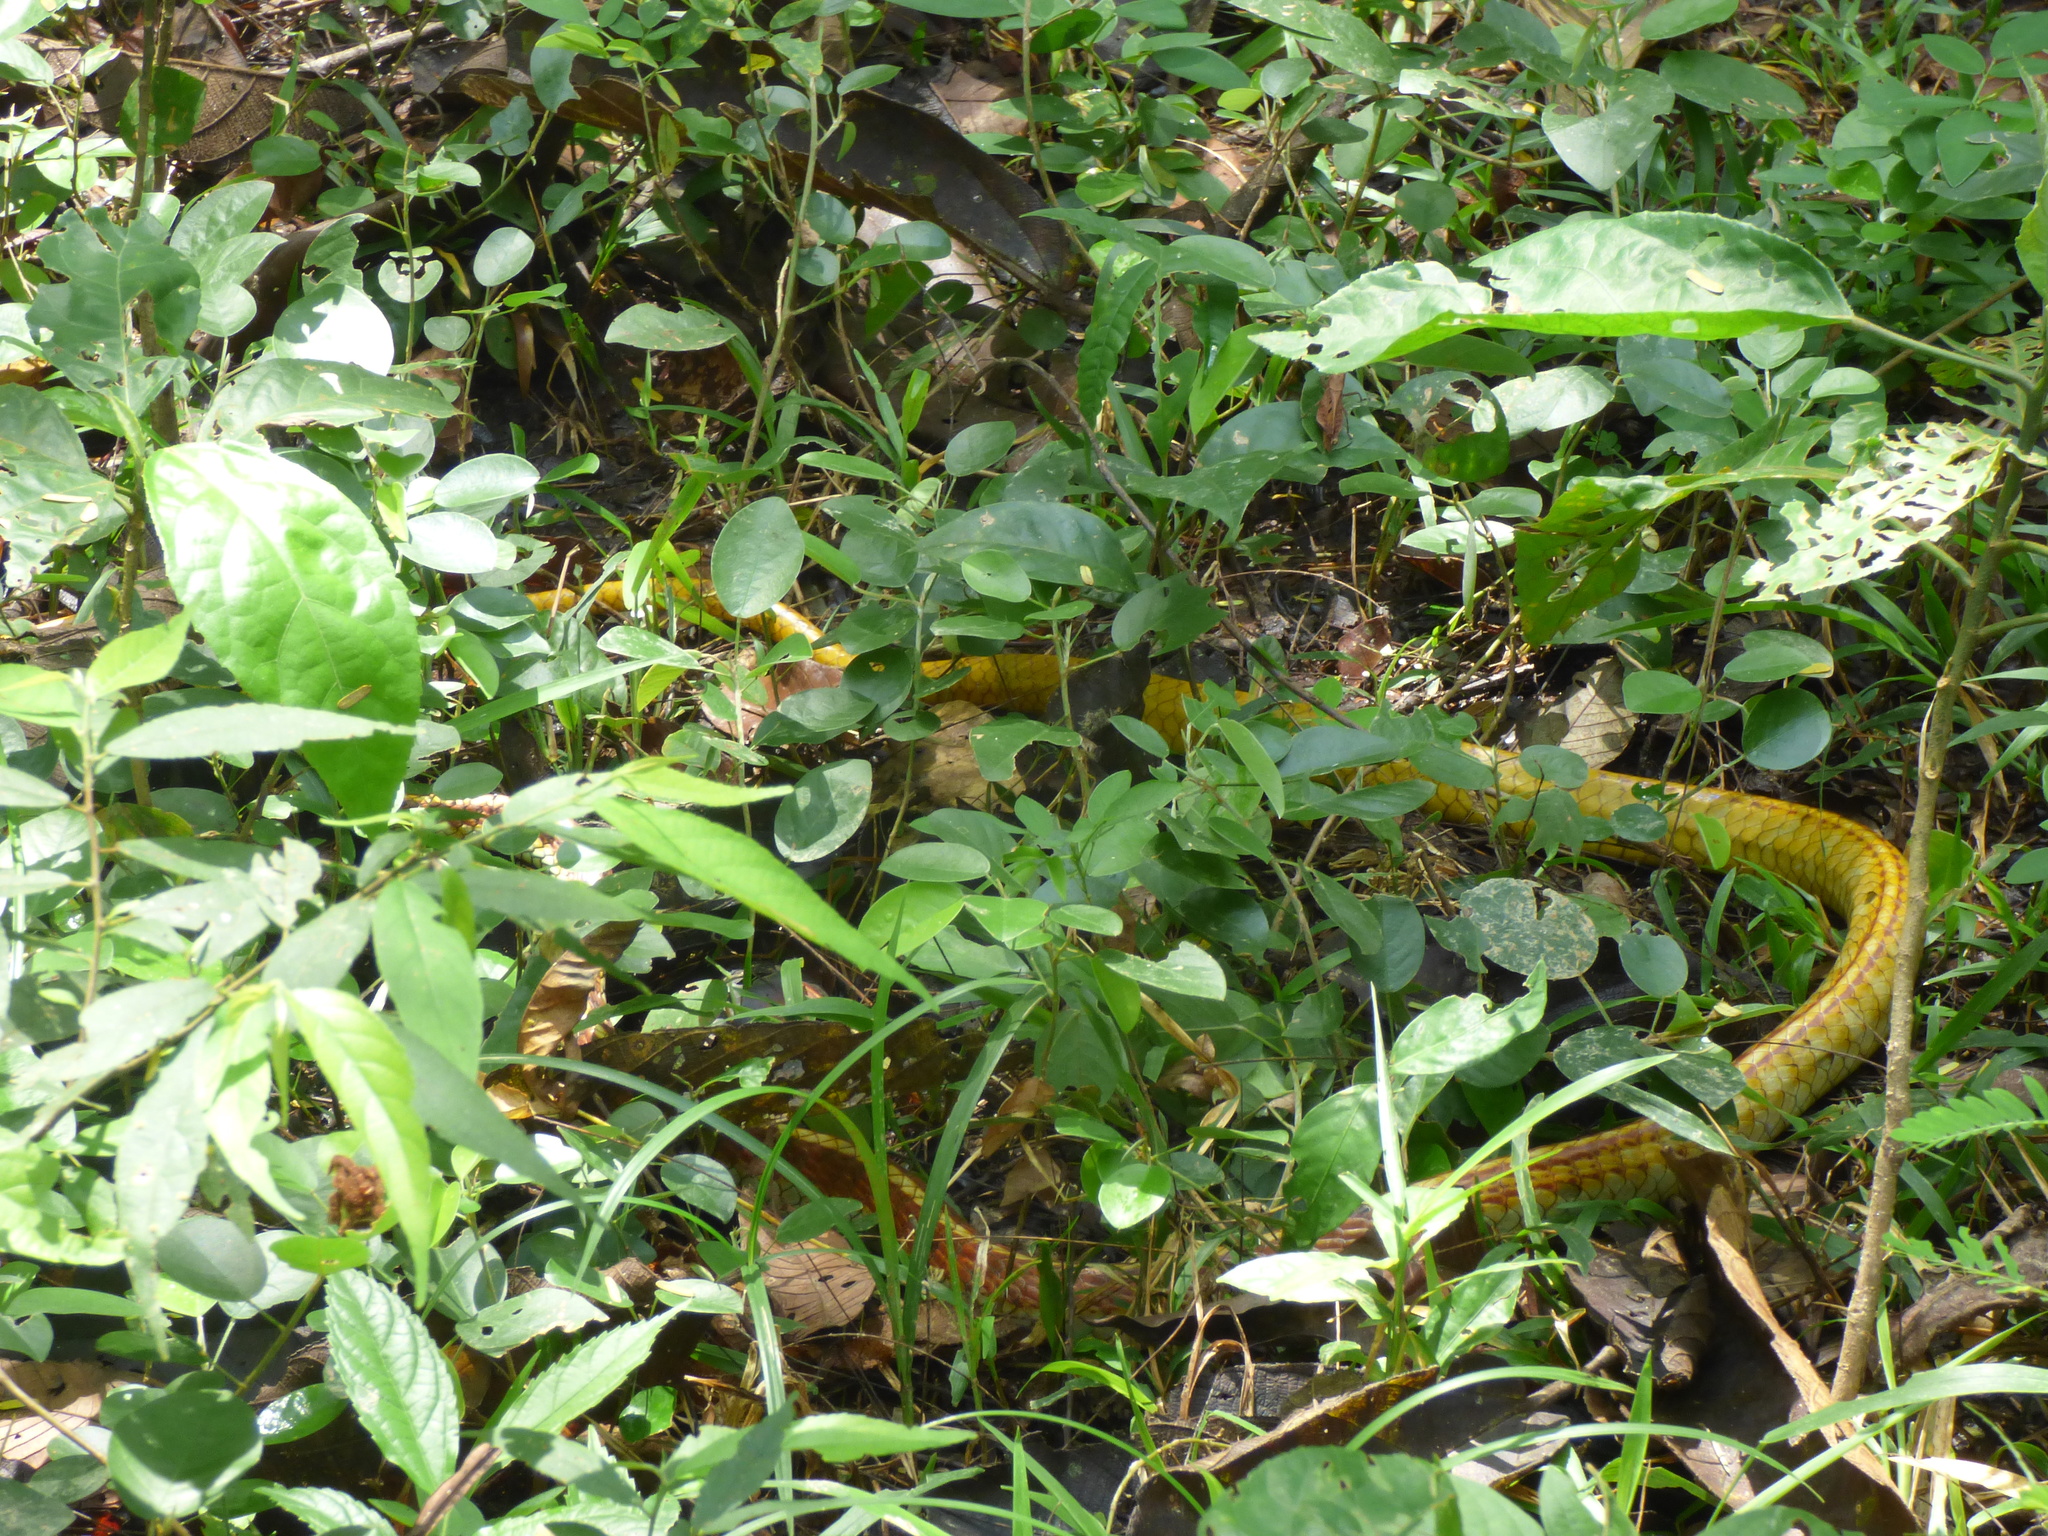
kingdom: Animalia
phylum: Chordata
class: Squamata
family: Colubridae
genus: Chironius
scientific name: Chironius spixii
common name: Sipo
